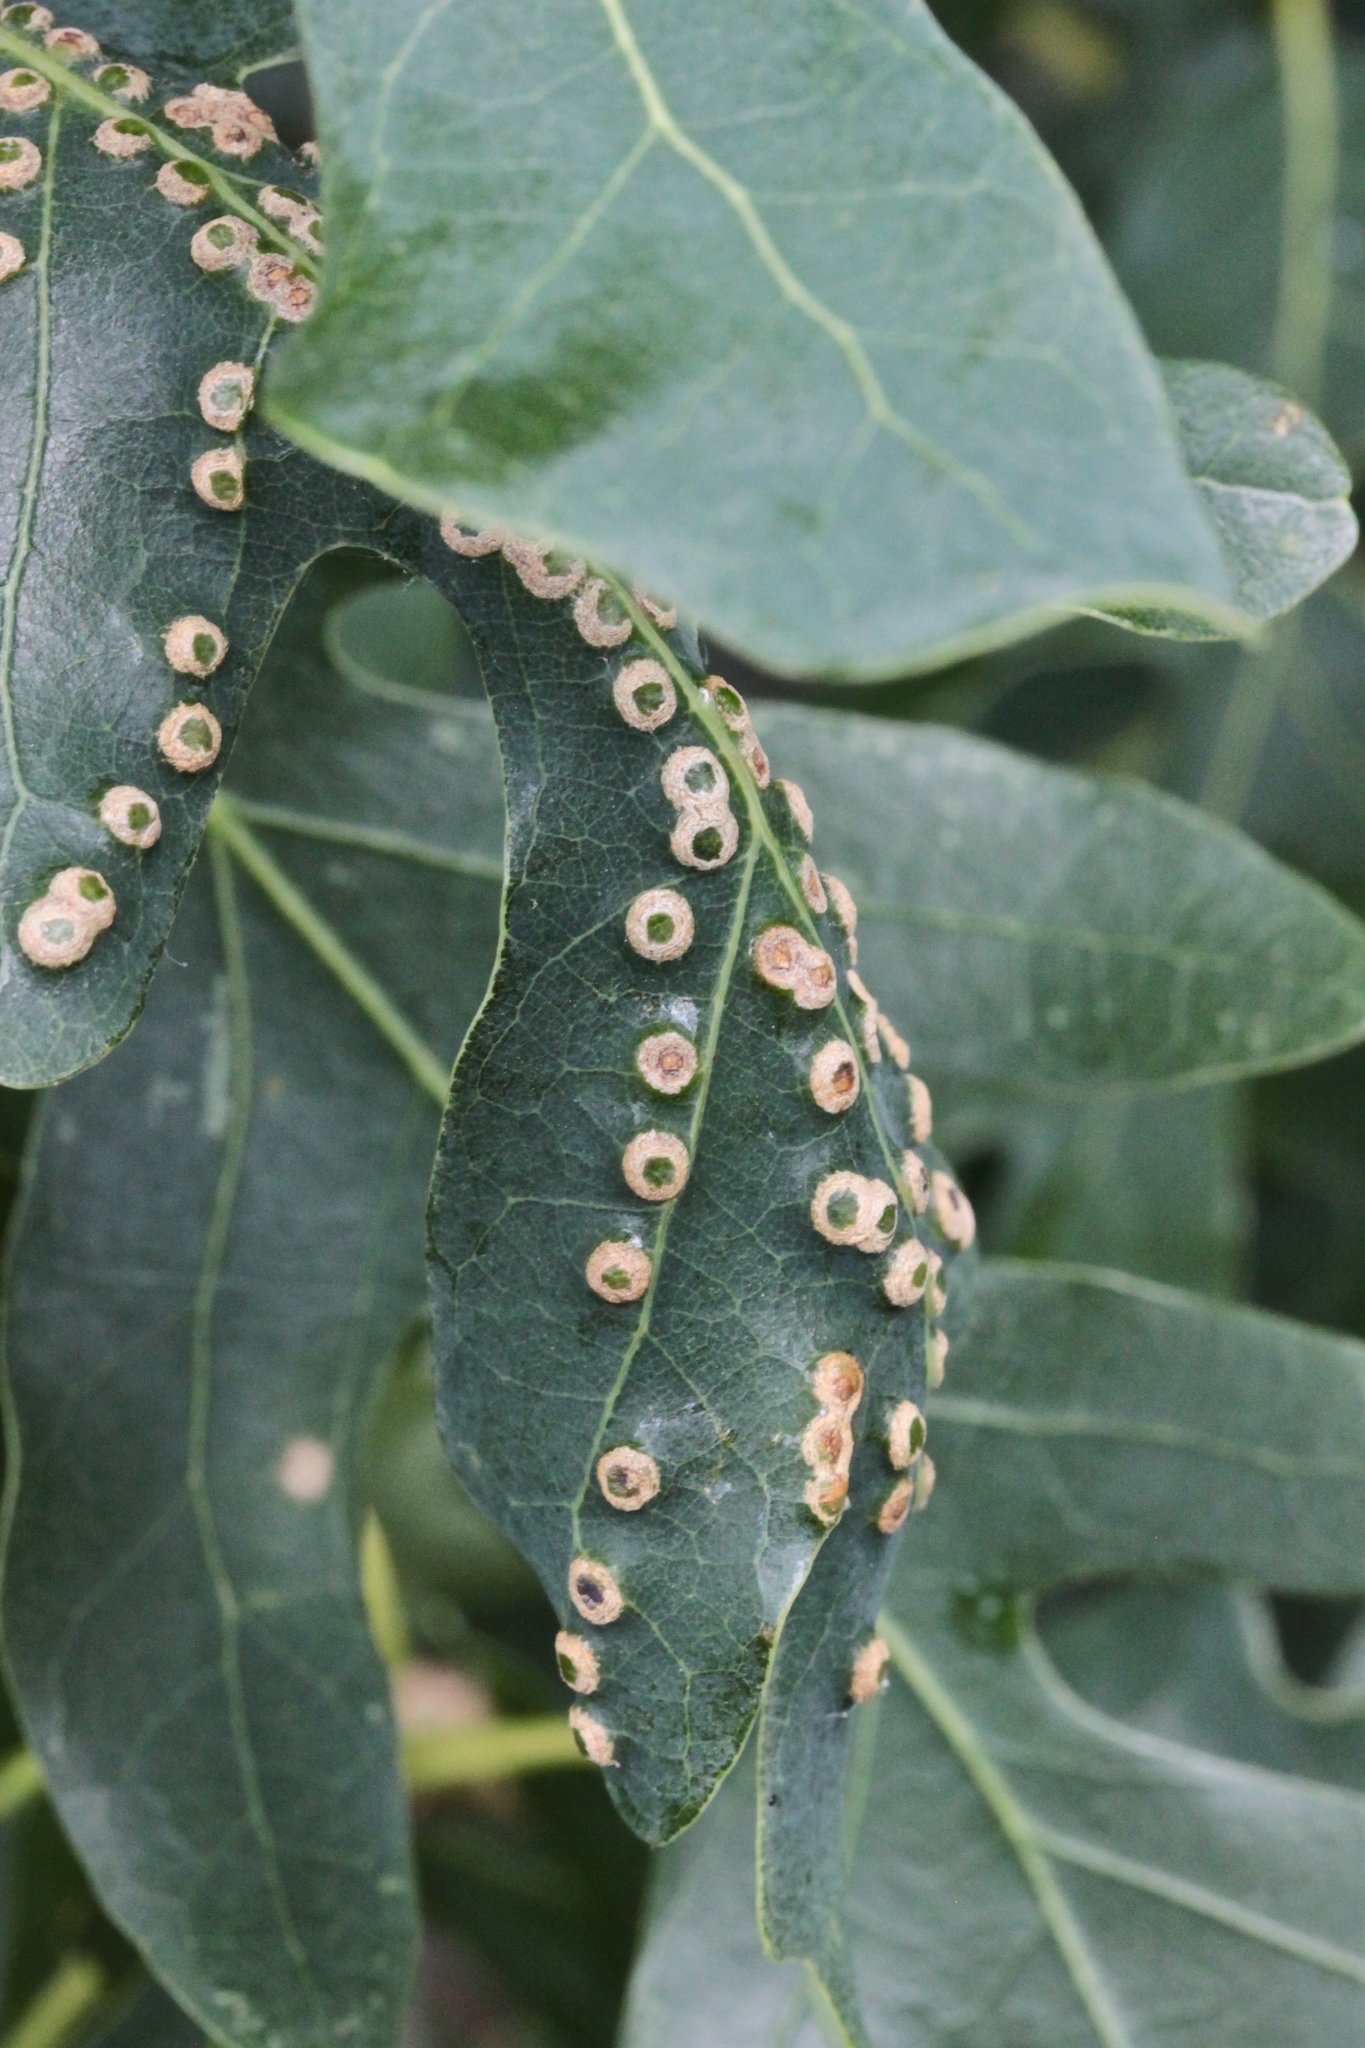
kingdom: Animalia
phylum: Arthropoda
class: Insecta
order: Hymenoptera
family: Cynipidae
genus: Neuroterus
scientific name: Neuroterus niger
